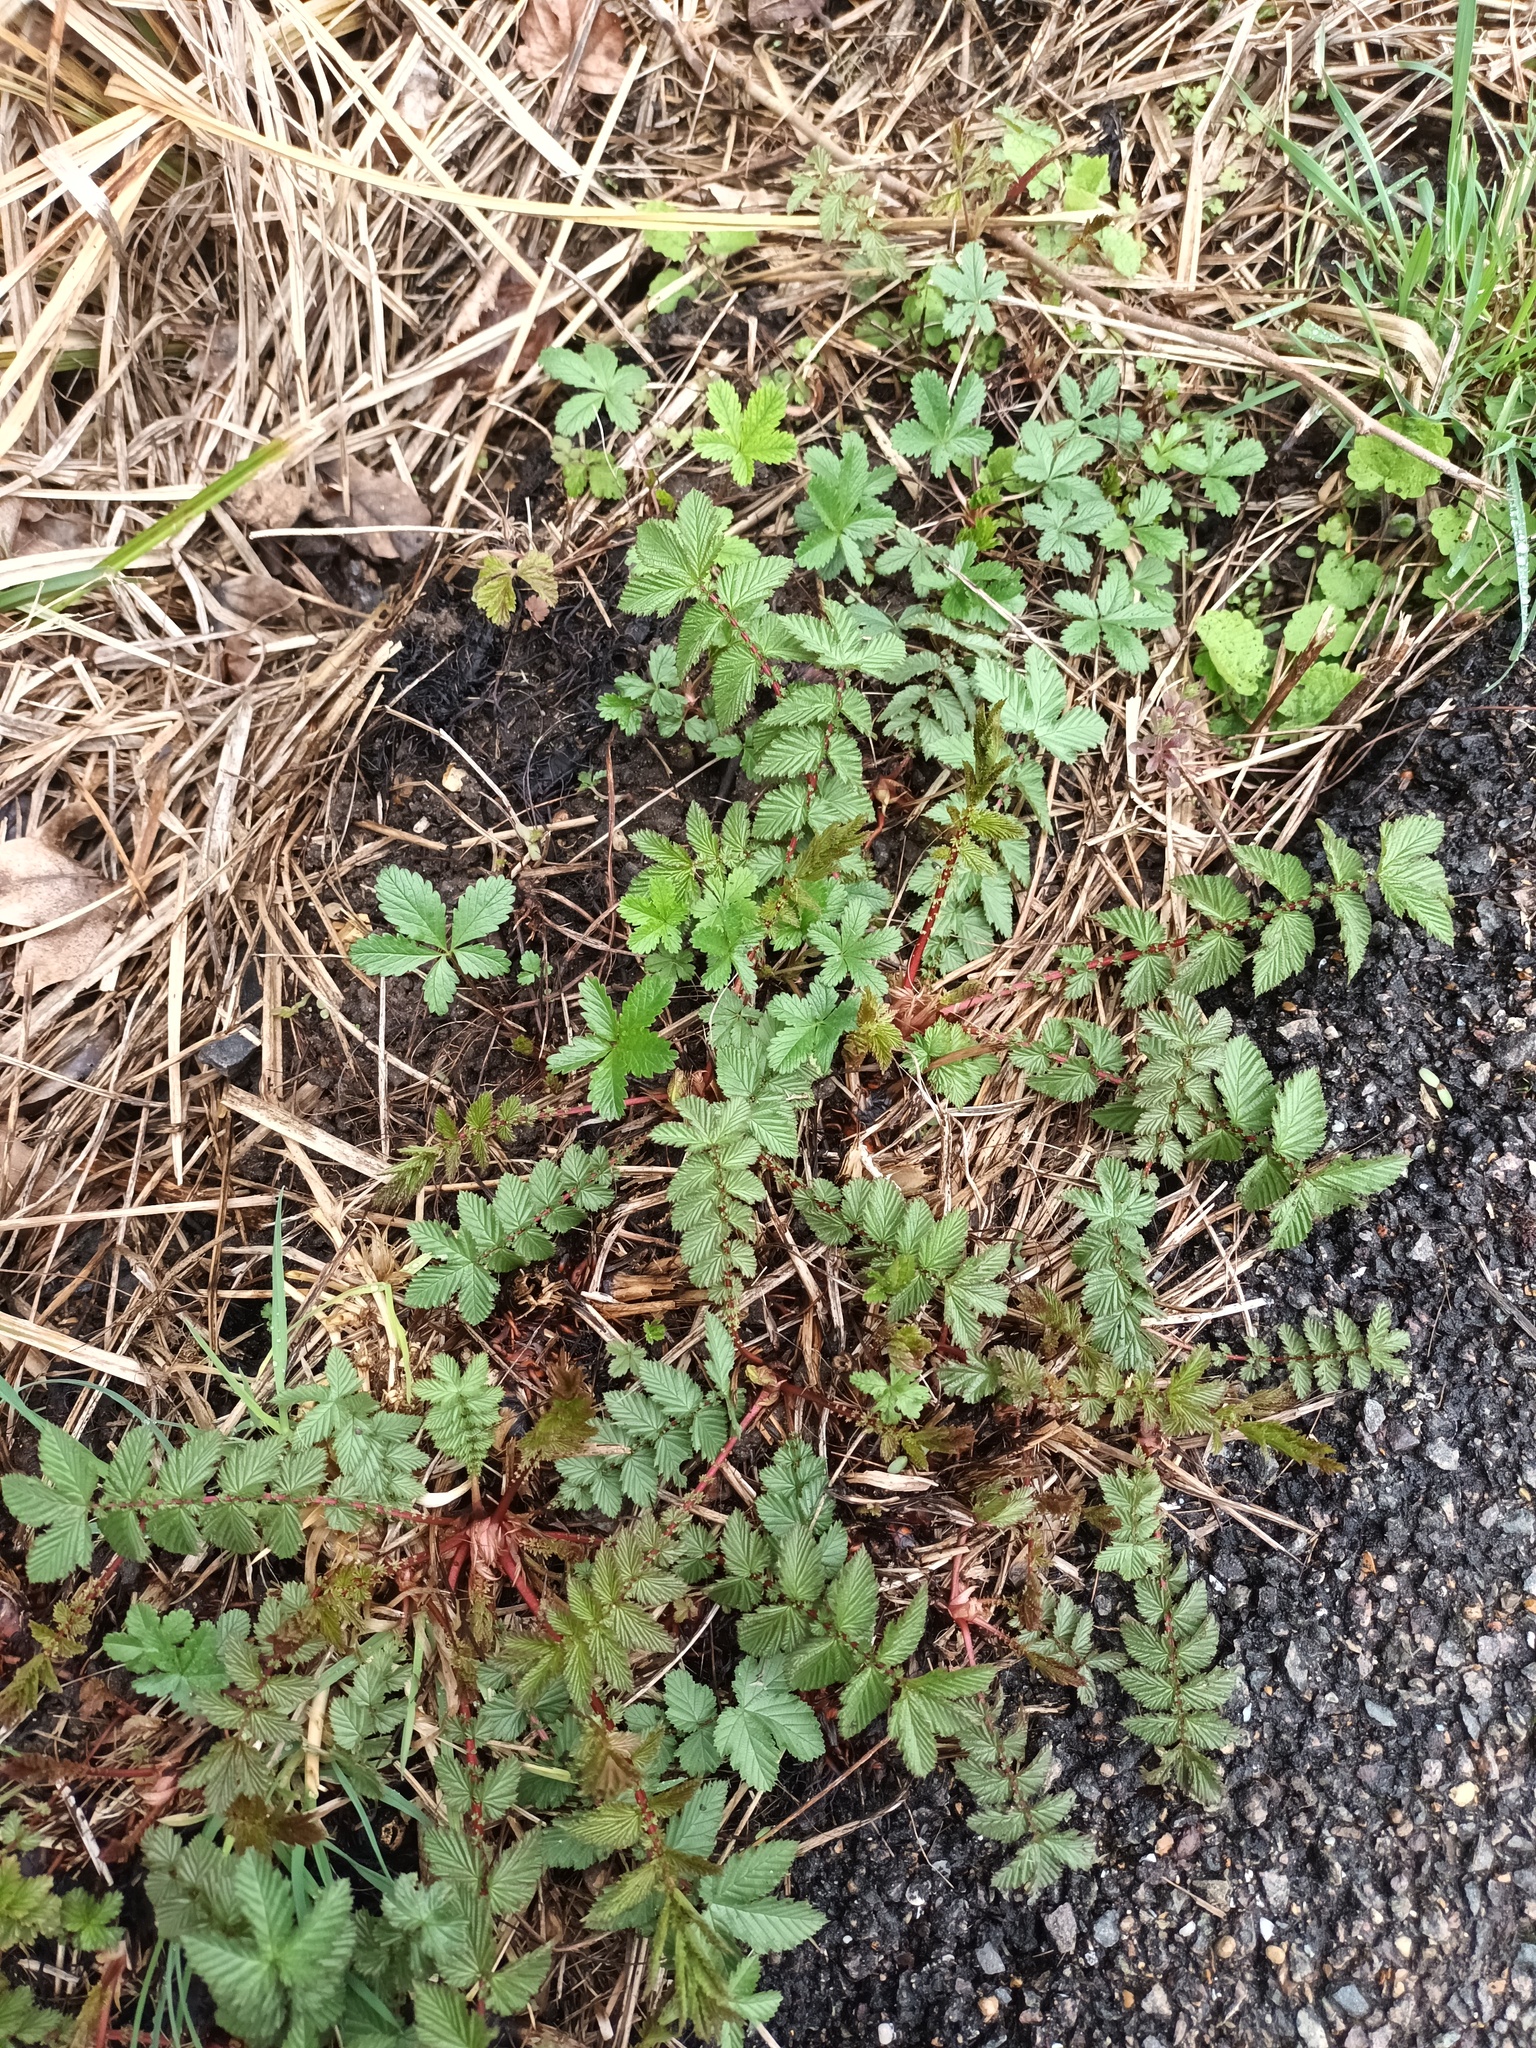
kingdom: Plantae
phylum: Tracheophyta
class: Magnoliopsida
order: Rosales
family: Rosaceae
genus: Filipendula
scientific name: Filipendula ulmaria
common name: Meadowsweet
